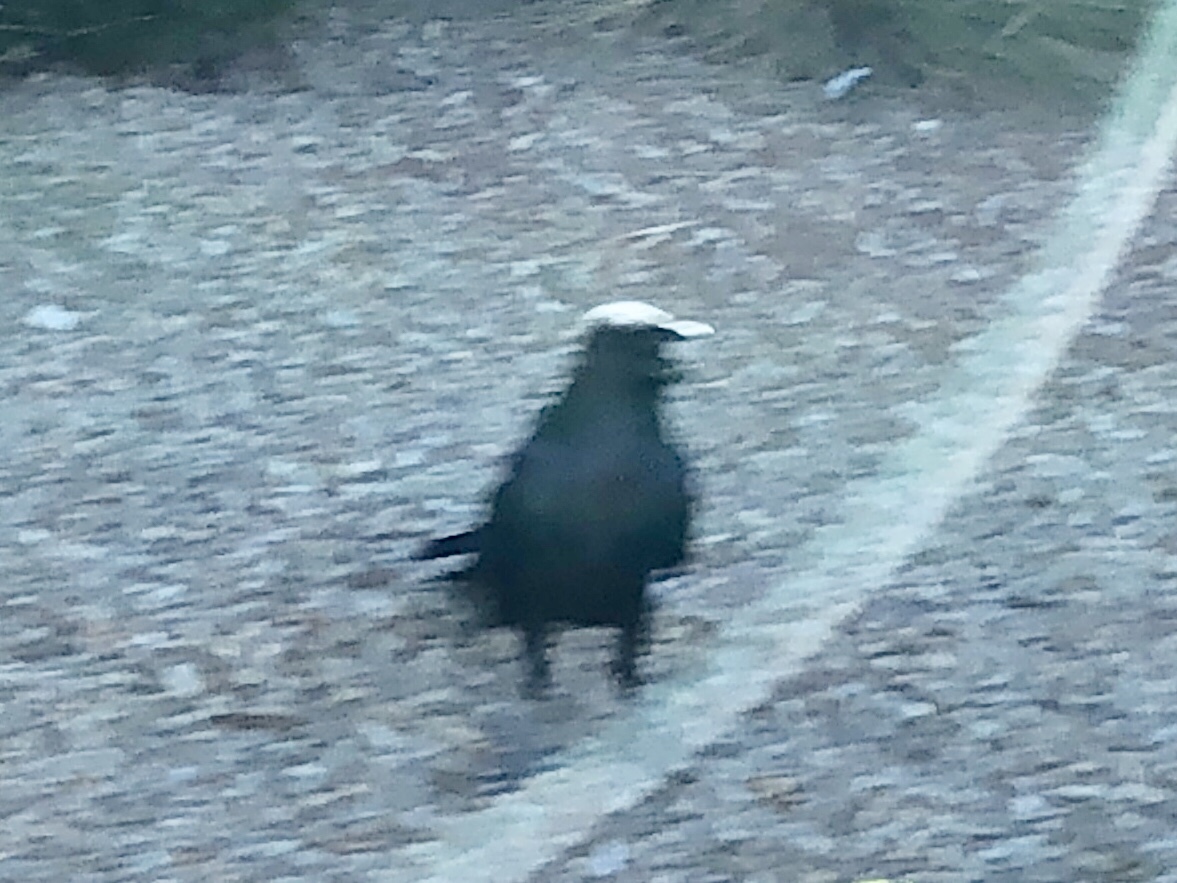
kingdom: Animalia
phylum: Chordata
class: Aves
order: Passeriformes
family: Corvidae
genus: Corvus
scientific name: Corvus corax
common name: Common raven
